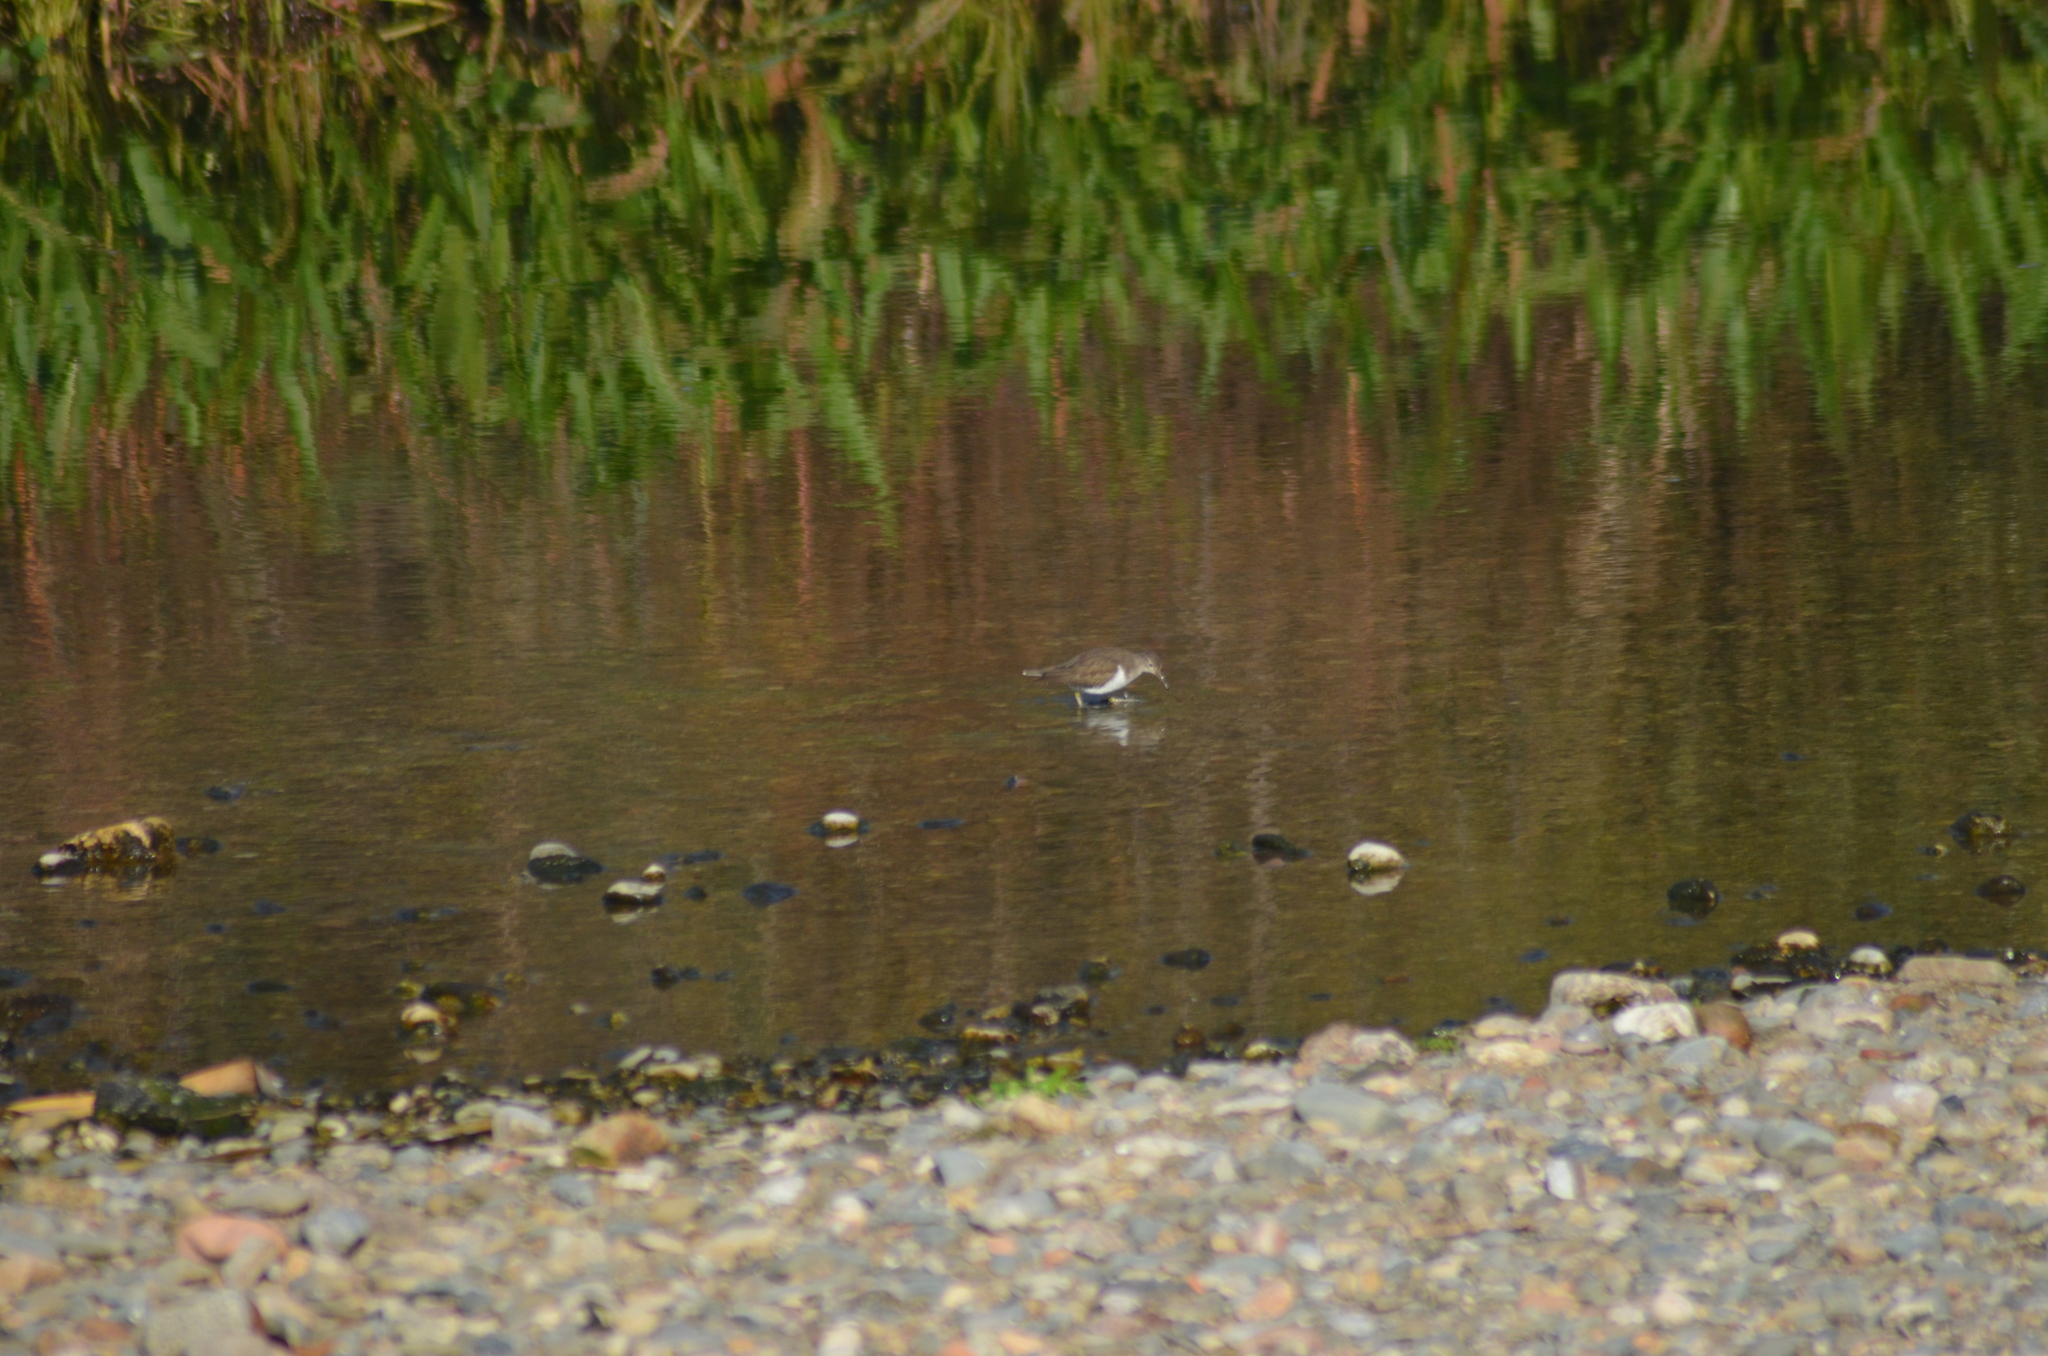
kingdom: Animalia
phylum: Chordata
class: Aves
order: Charadriiformes
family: Scolopacidae
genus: Actitis
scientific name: Actitis hypoleucos
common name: Common sandpiper
